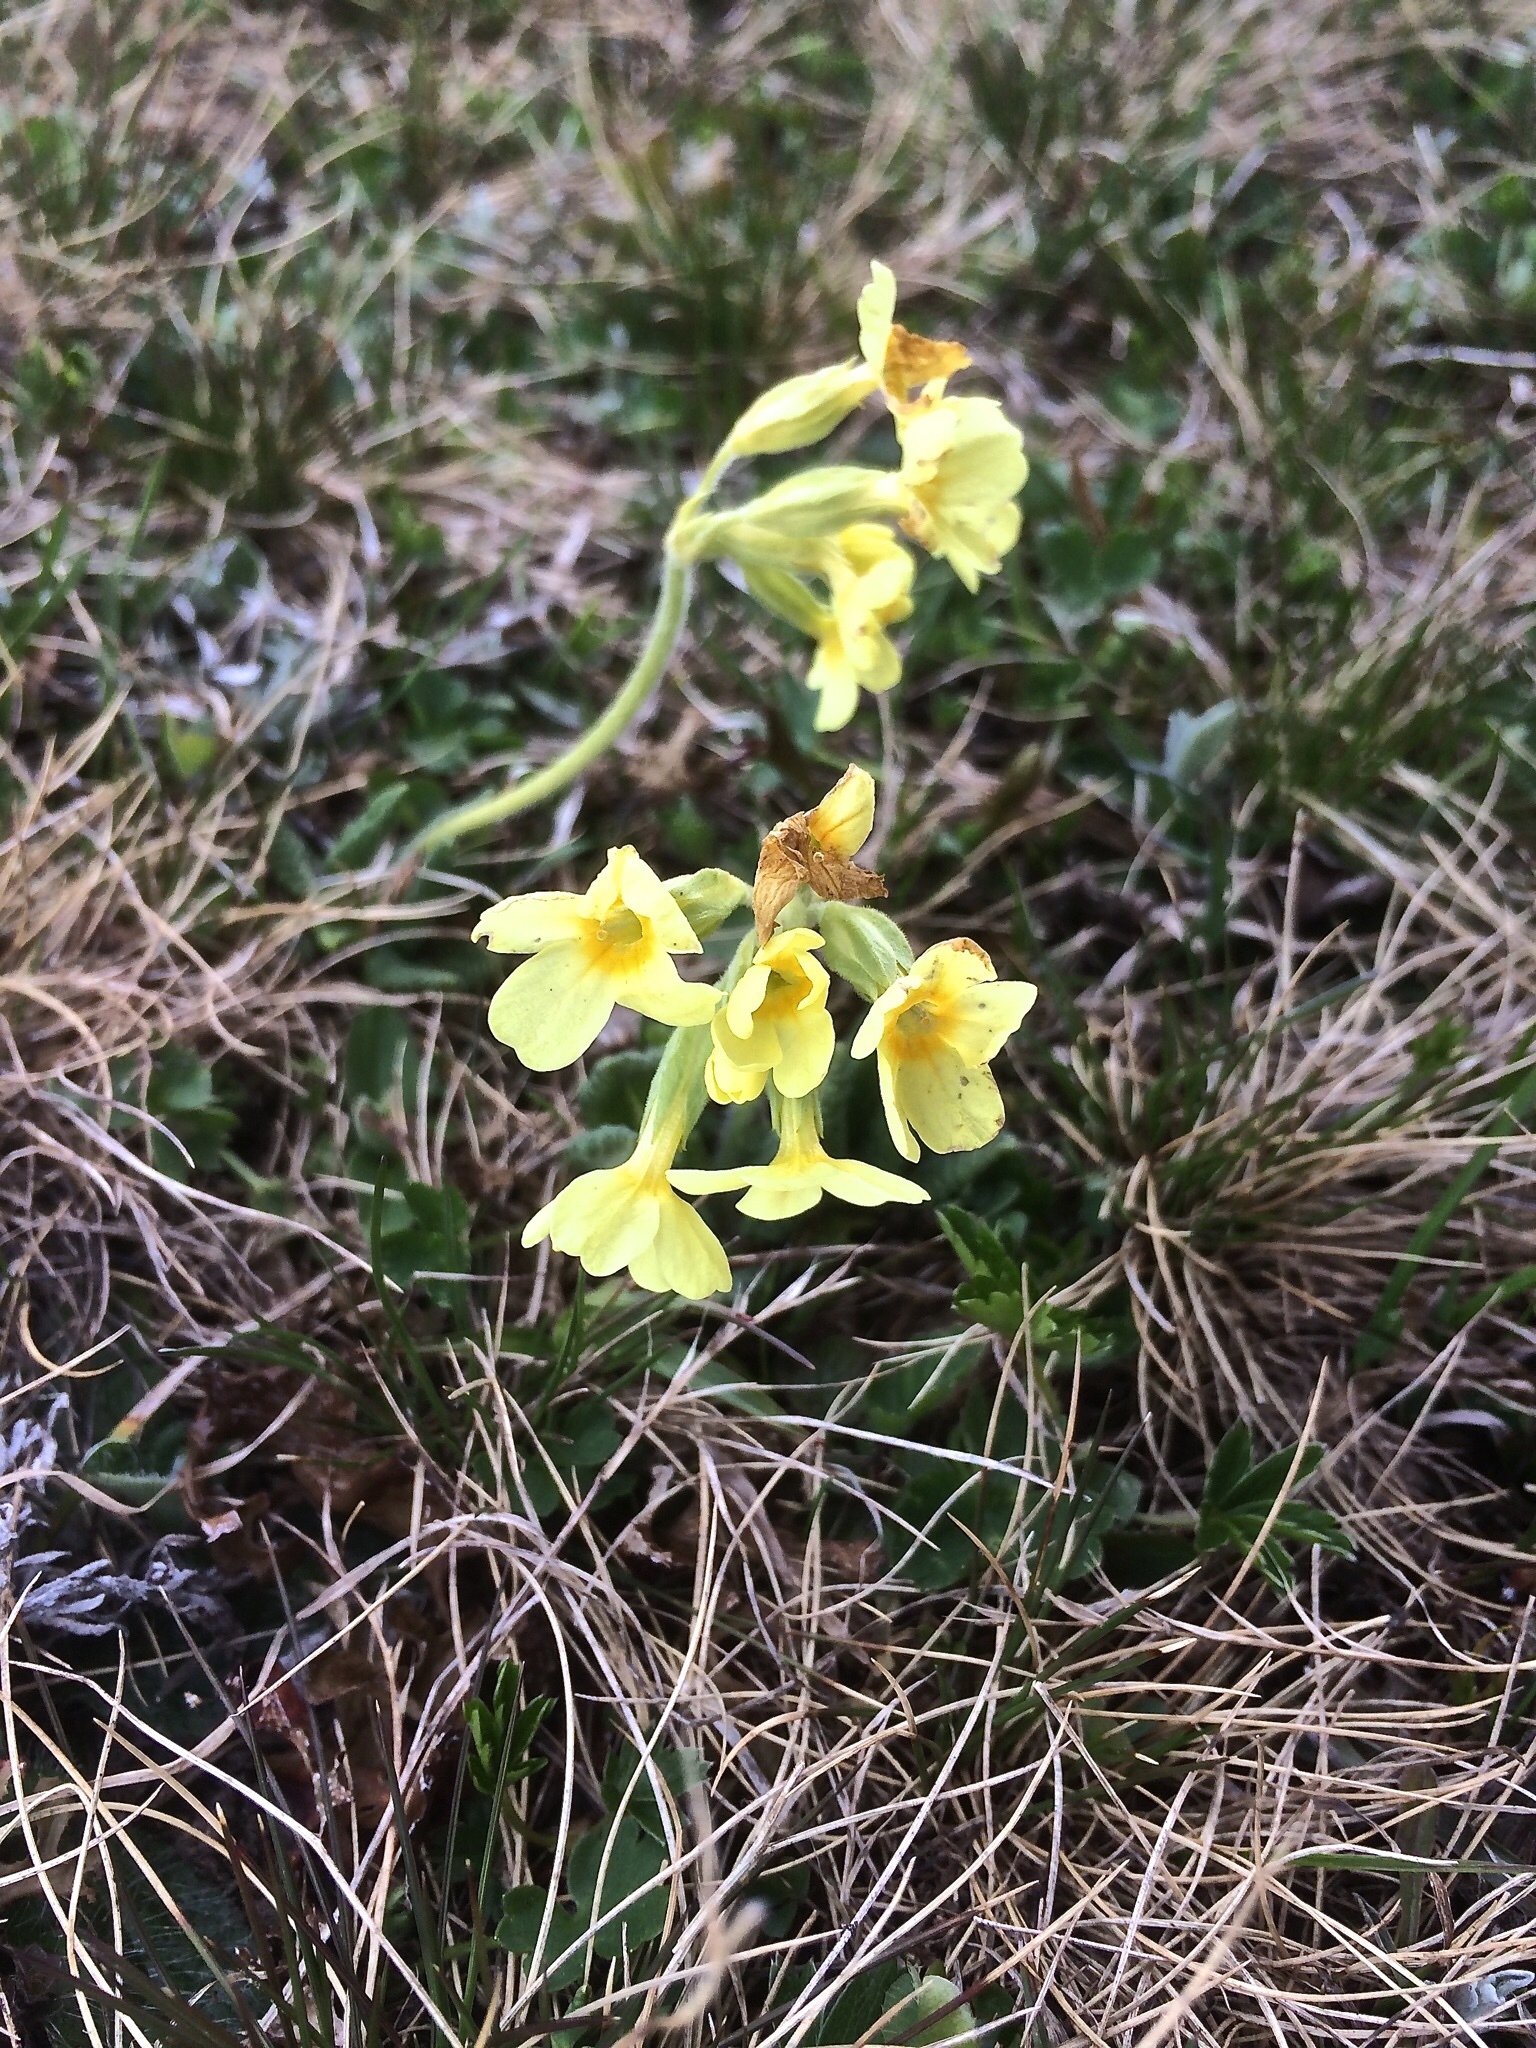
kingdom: Plantae
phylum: Tracheophyta
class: Magnoliopsida
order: Ericales
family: Primulaceae
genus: Primula
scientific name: Primula elatior
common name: Oxlip
